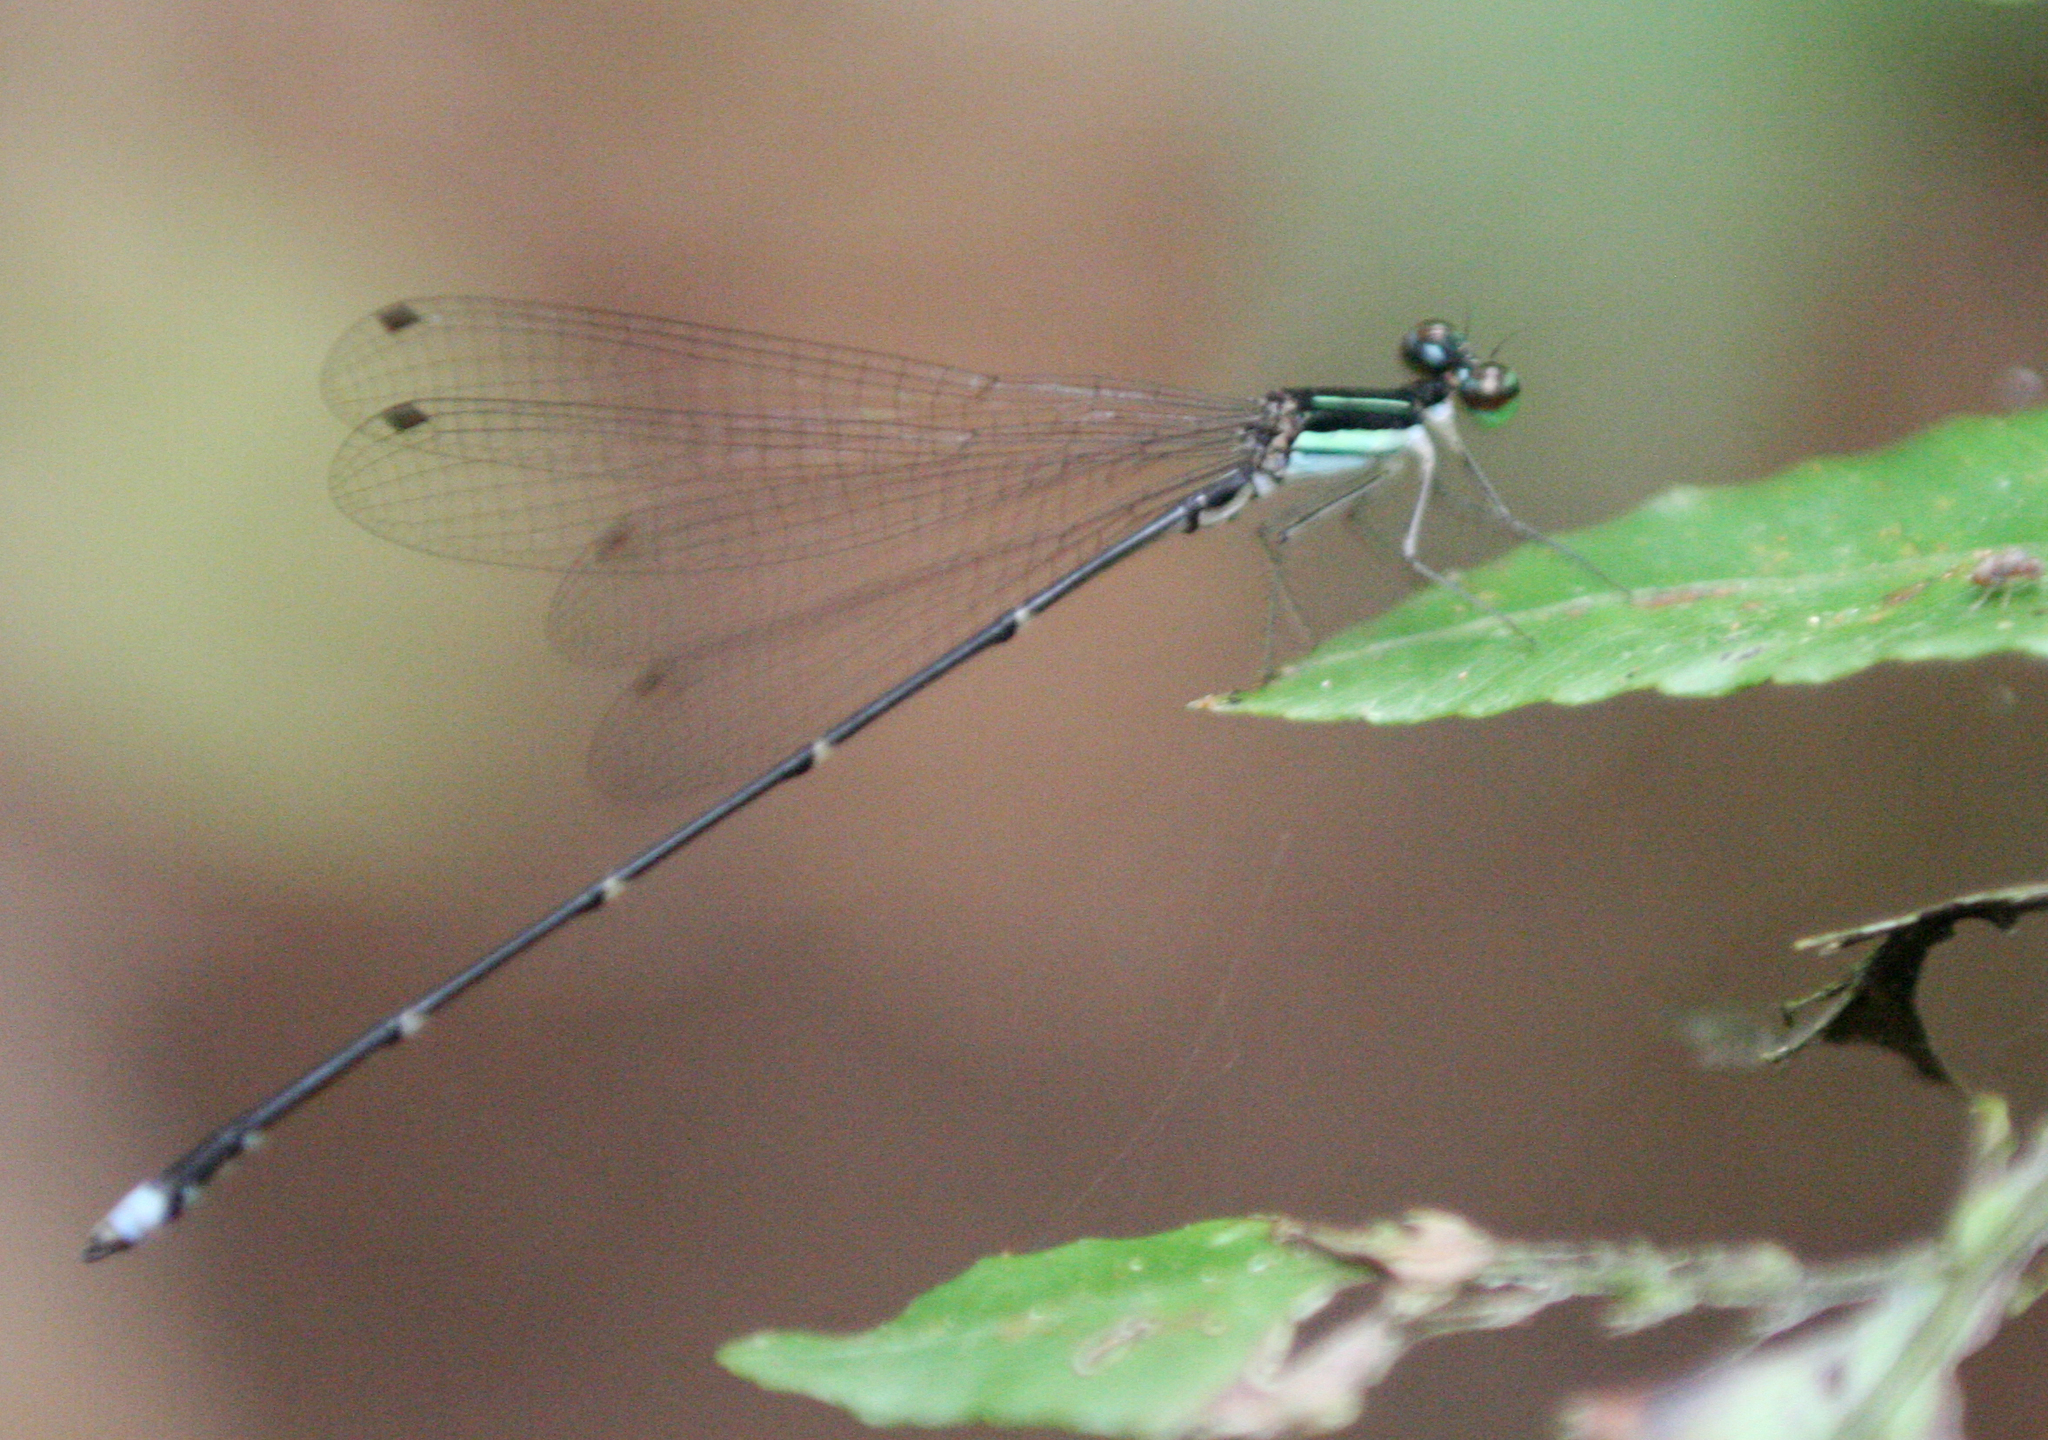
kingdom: Animalia
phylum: Arthropoda
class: Insecta
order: Odonata
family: Platycnemididae
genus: Coeliccia
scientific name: Coeliccia kazukoae
